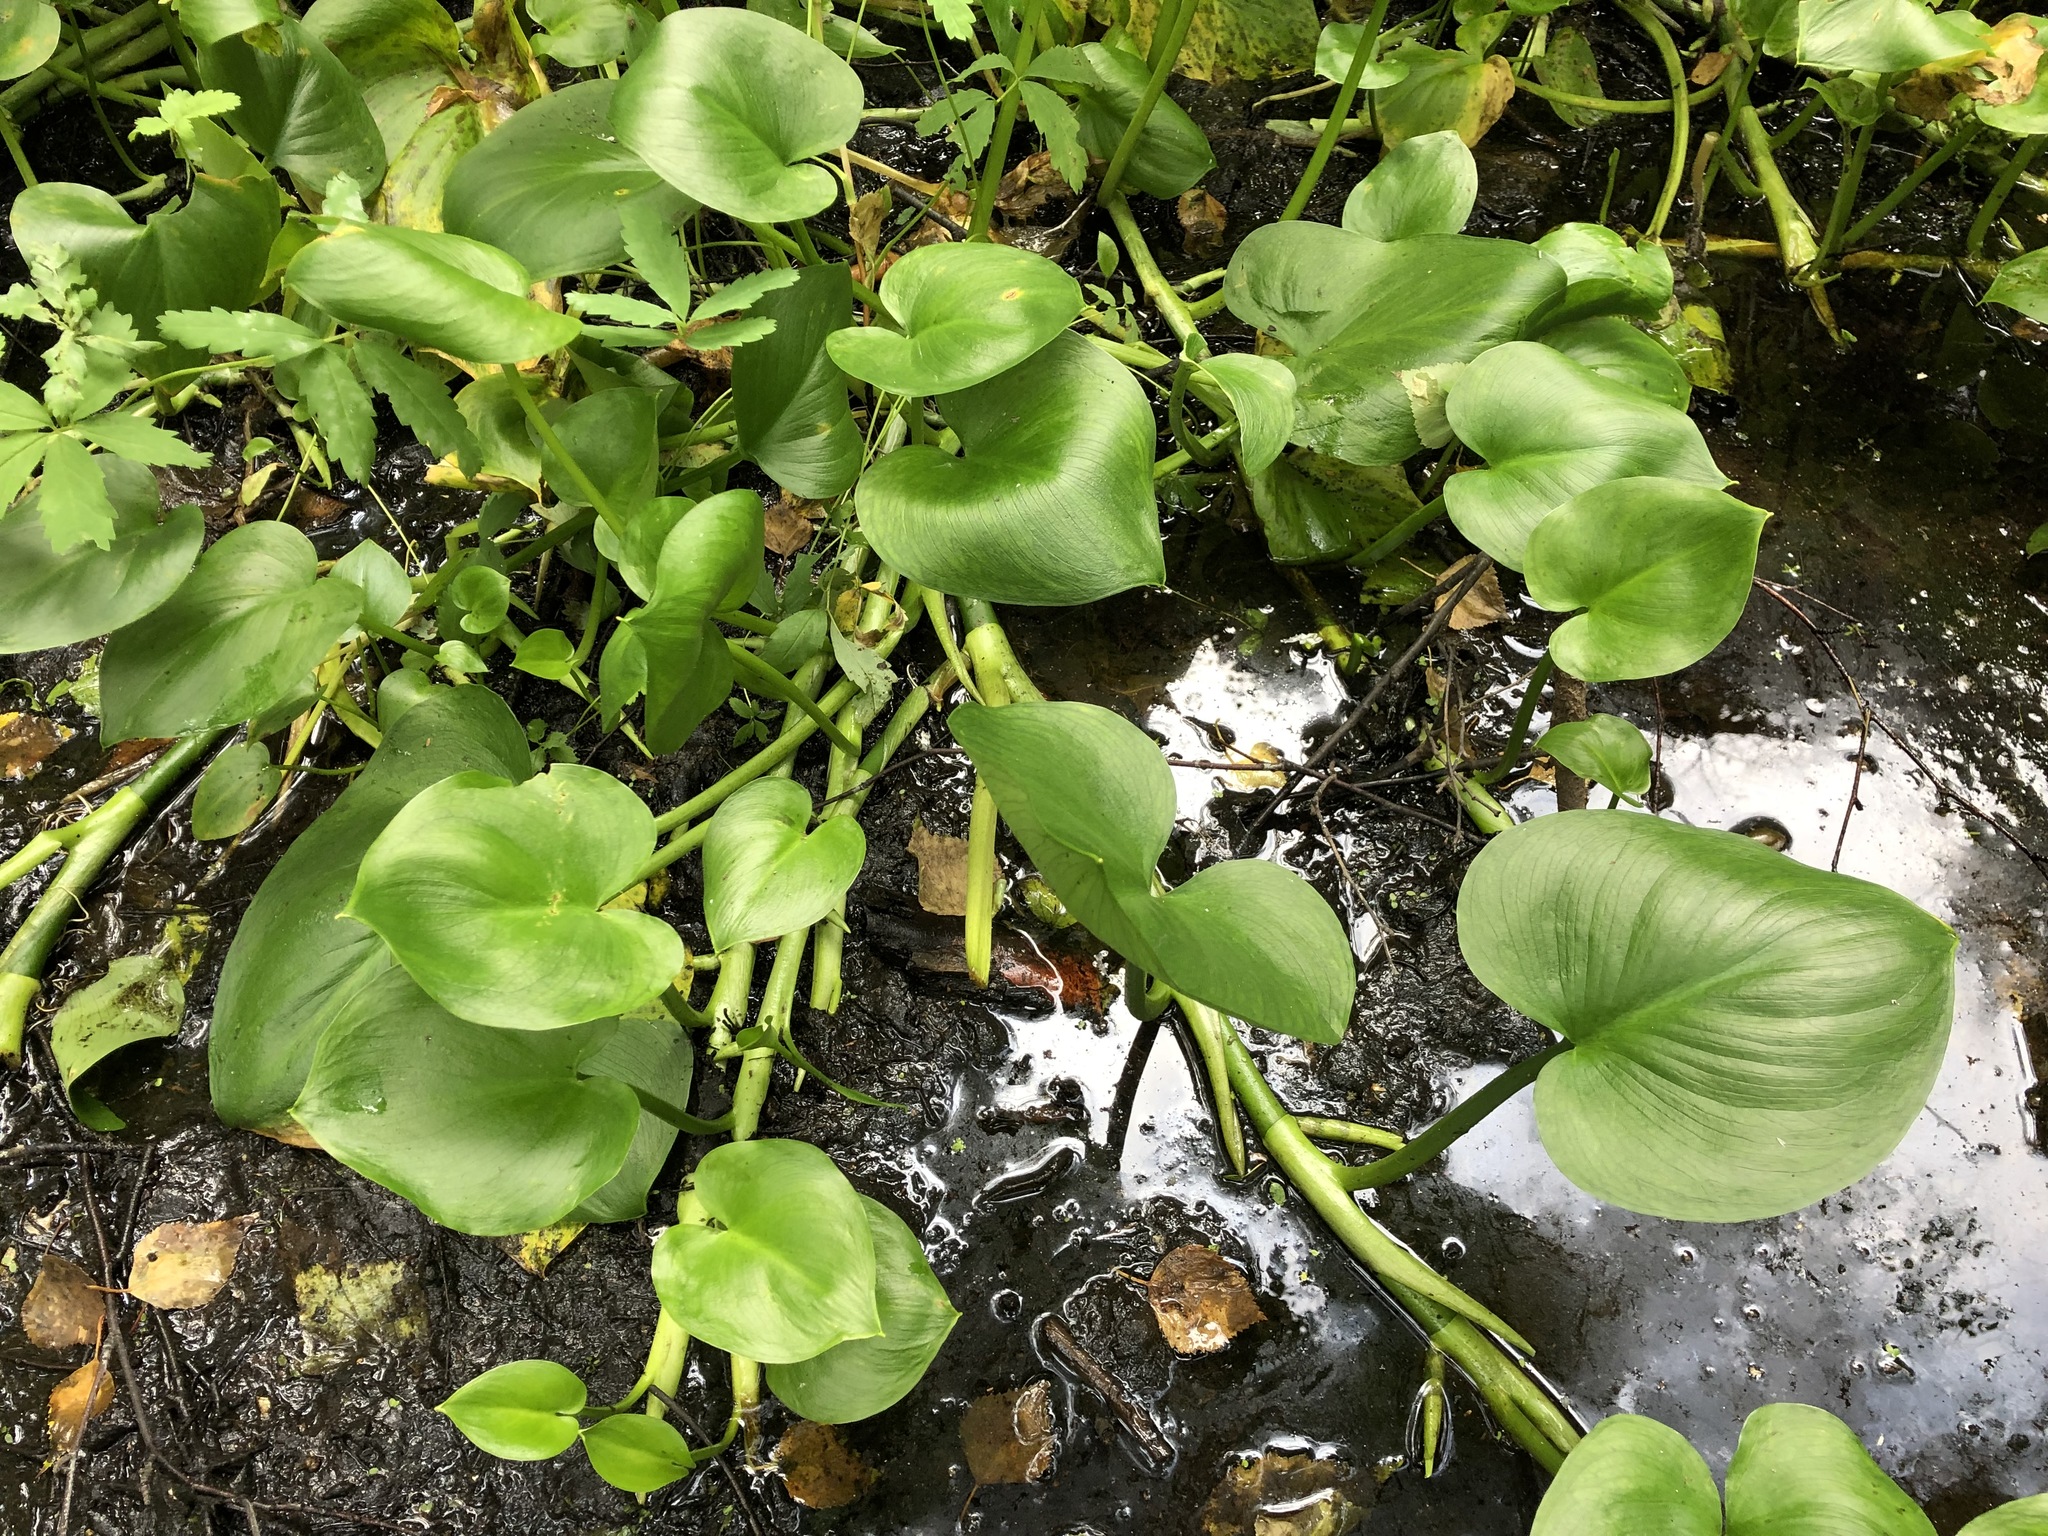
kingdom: Plantae
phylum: Tracheophyta
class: Liliopsida
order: Alismatales
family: Araceae
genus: Calla
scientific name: Calla palustris
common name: Bog arum
